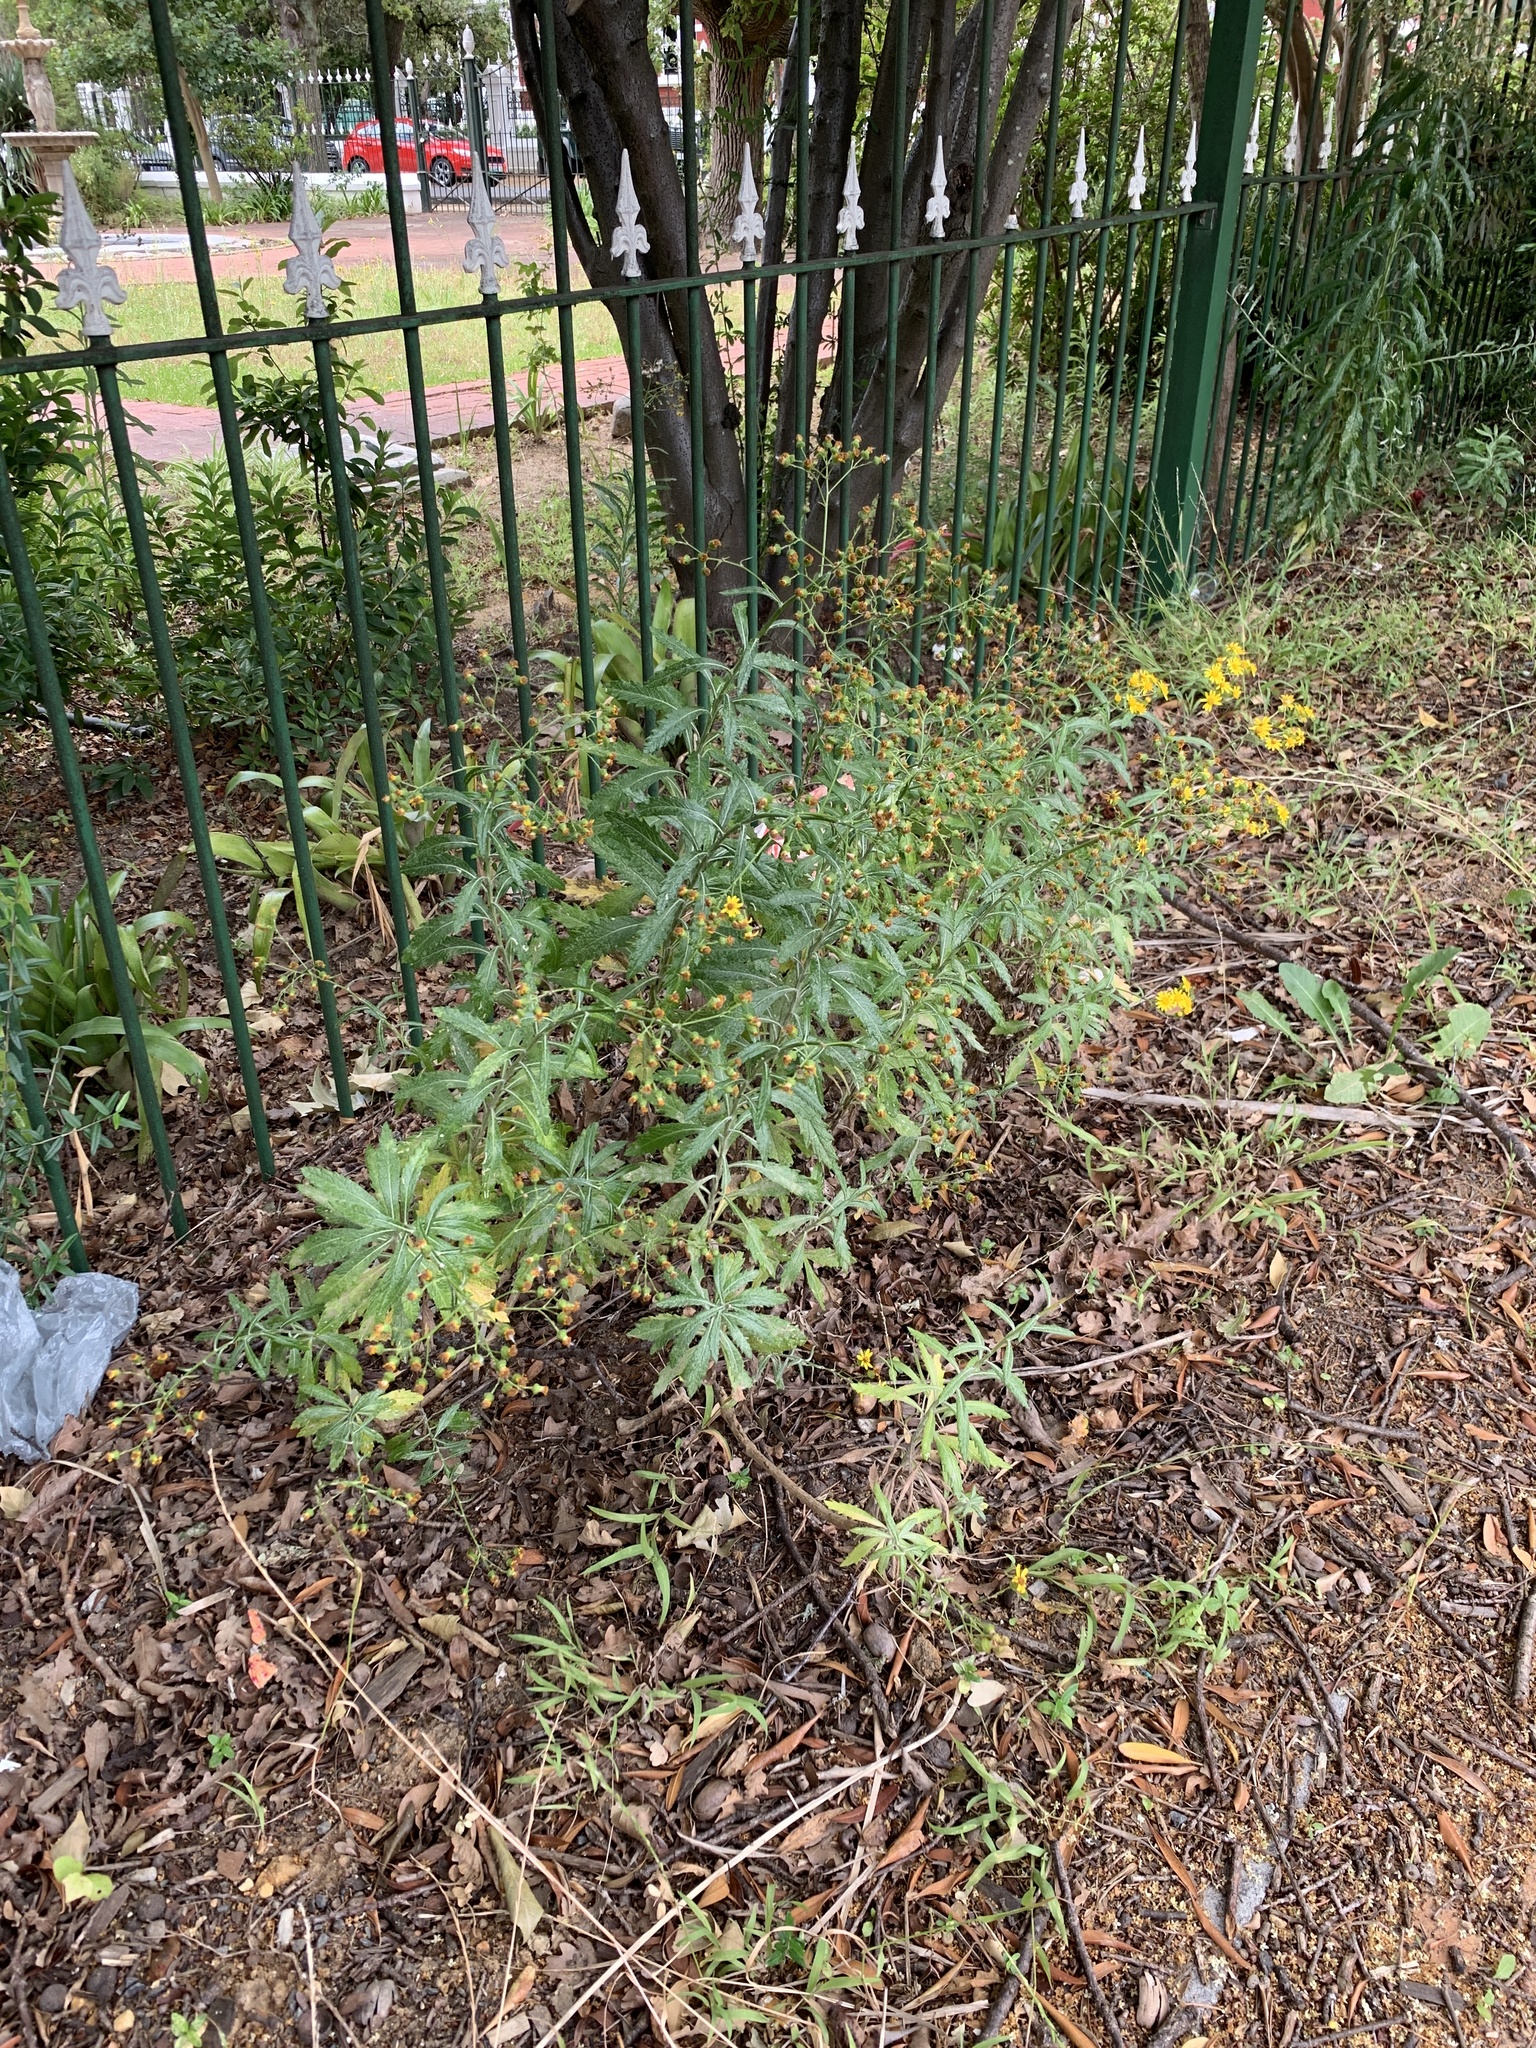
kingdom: Plantae
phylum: Tracheophyta
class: Magnoliopsida
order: Asterales
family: Asteraceae
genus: Senecio
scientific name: Senecio pterophorus
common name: Shoddy ragwort
